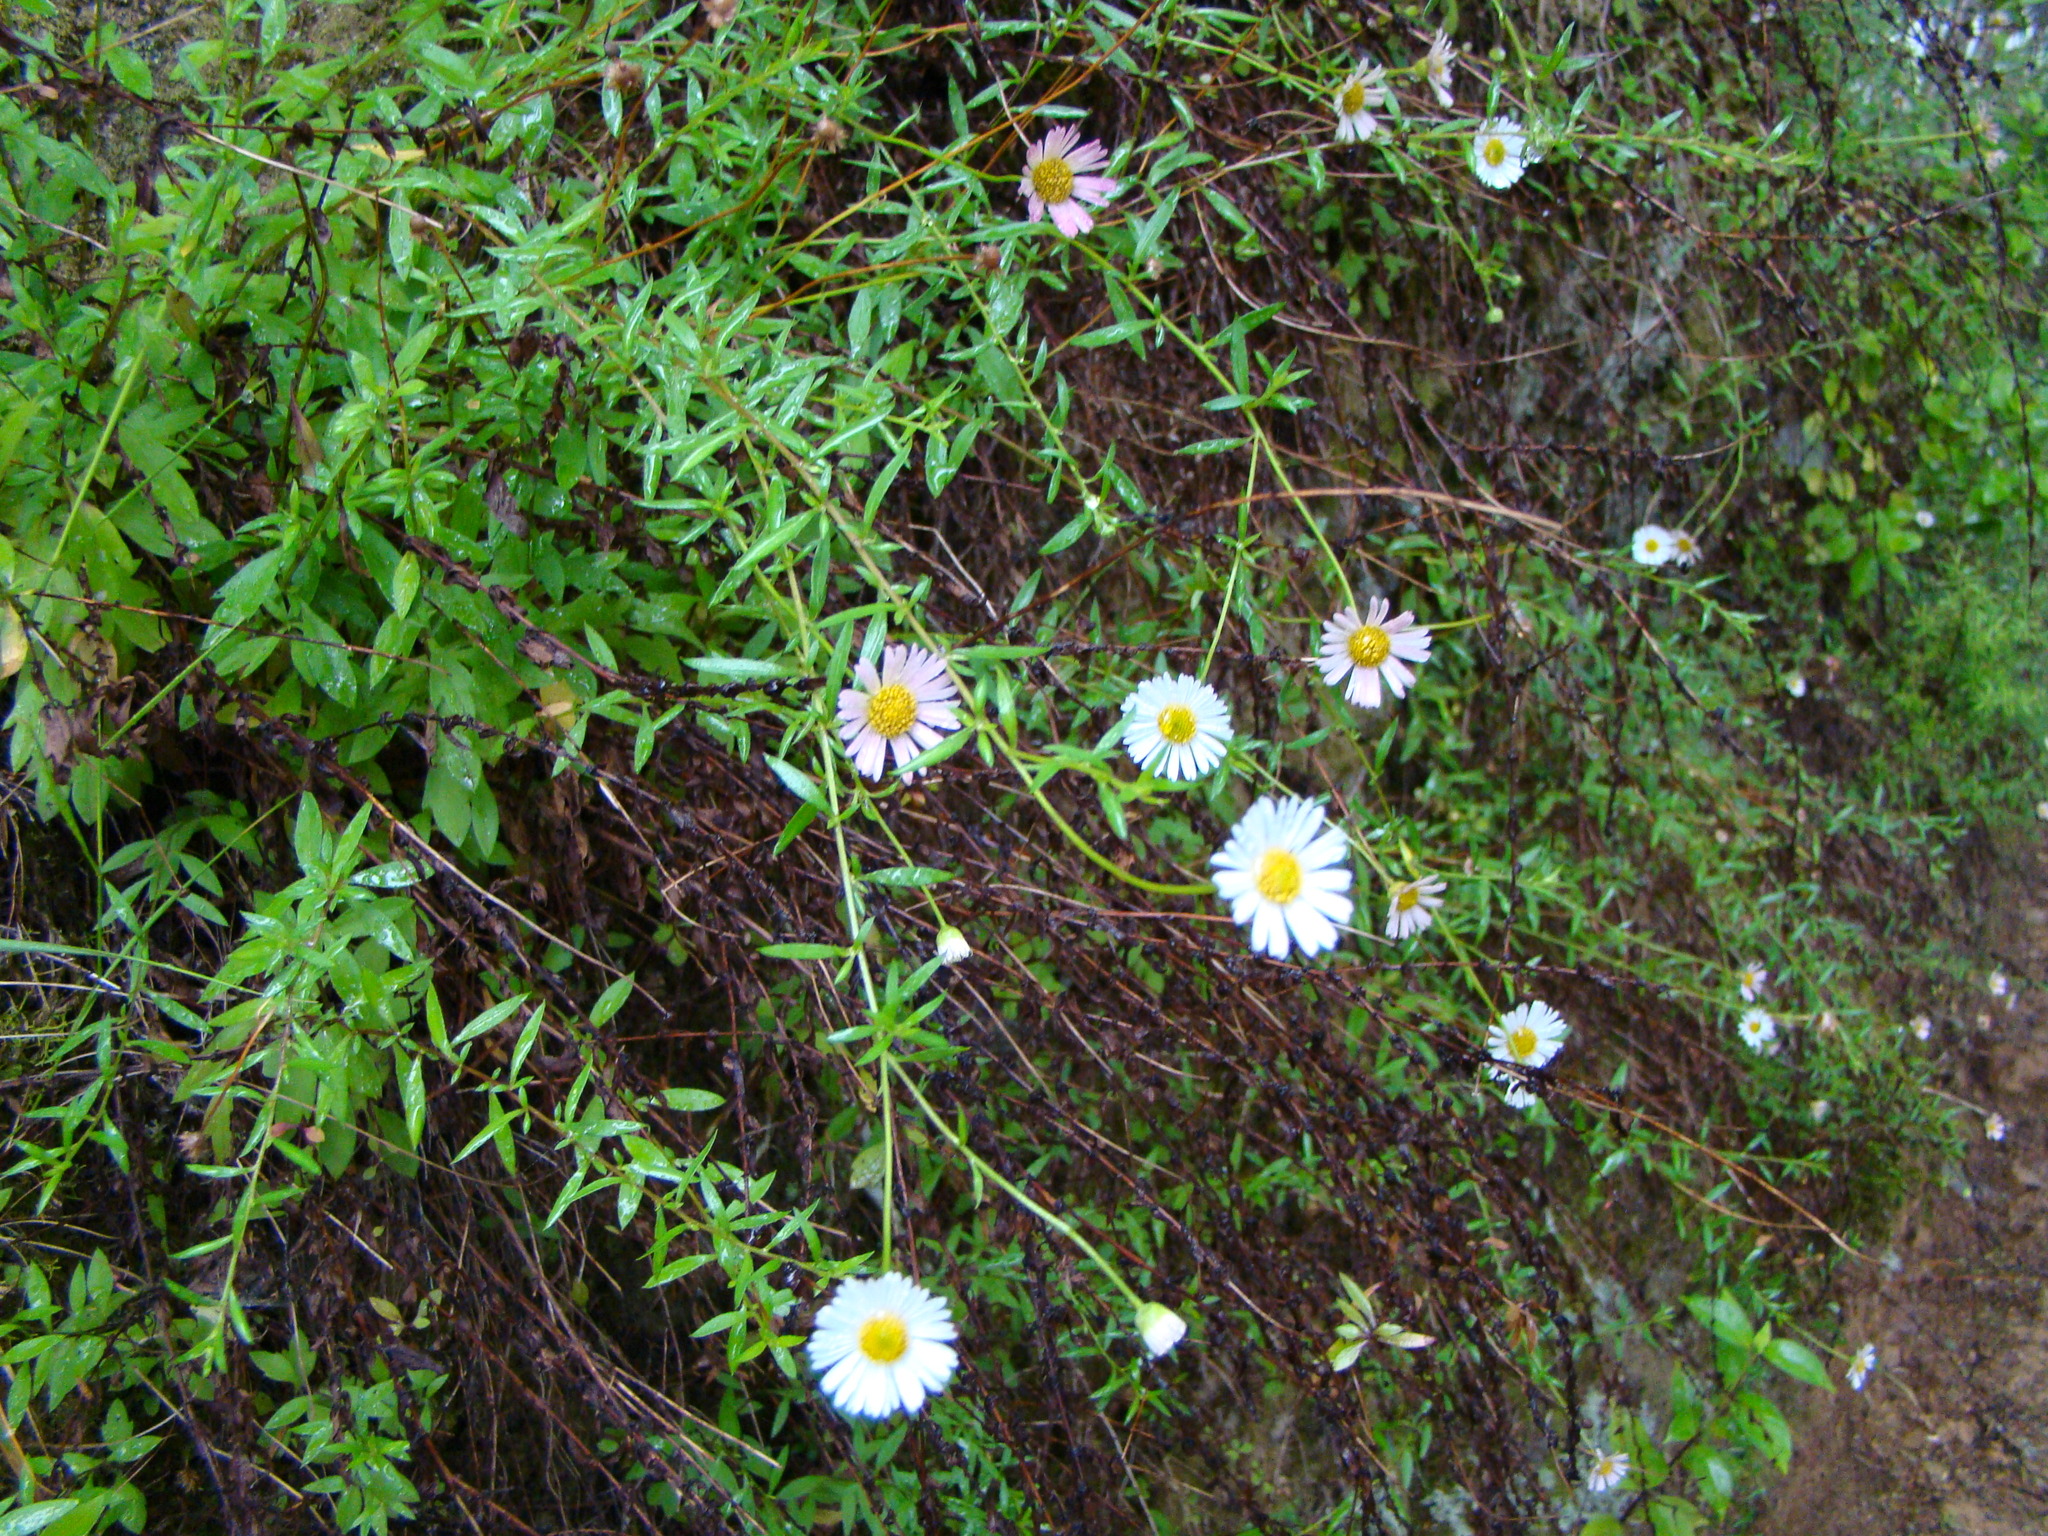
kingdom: Plantae
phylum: Tracheophyta
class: Magnoliopsida
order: Asterales
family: Asteraceae
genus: Erigeron
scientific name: Erigeron karvinskianus
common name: Mexican fleabane
